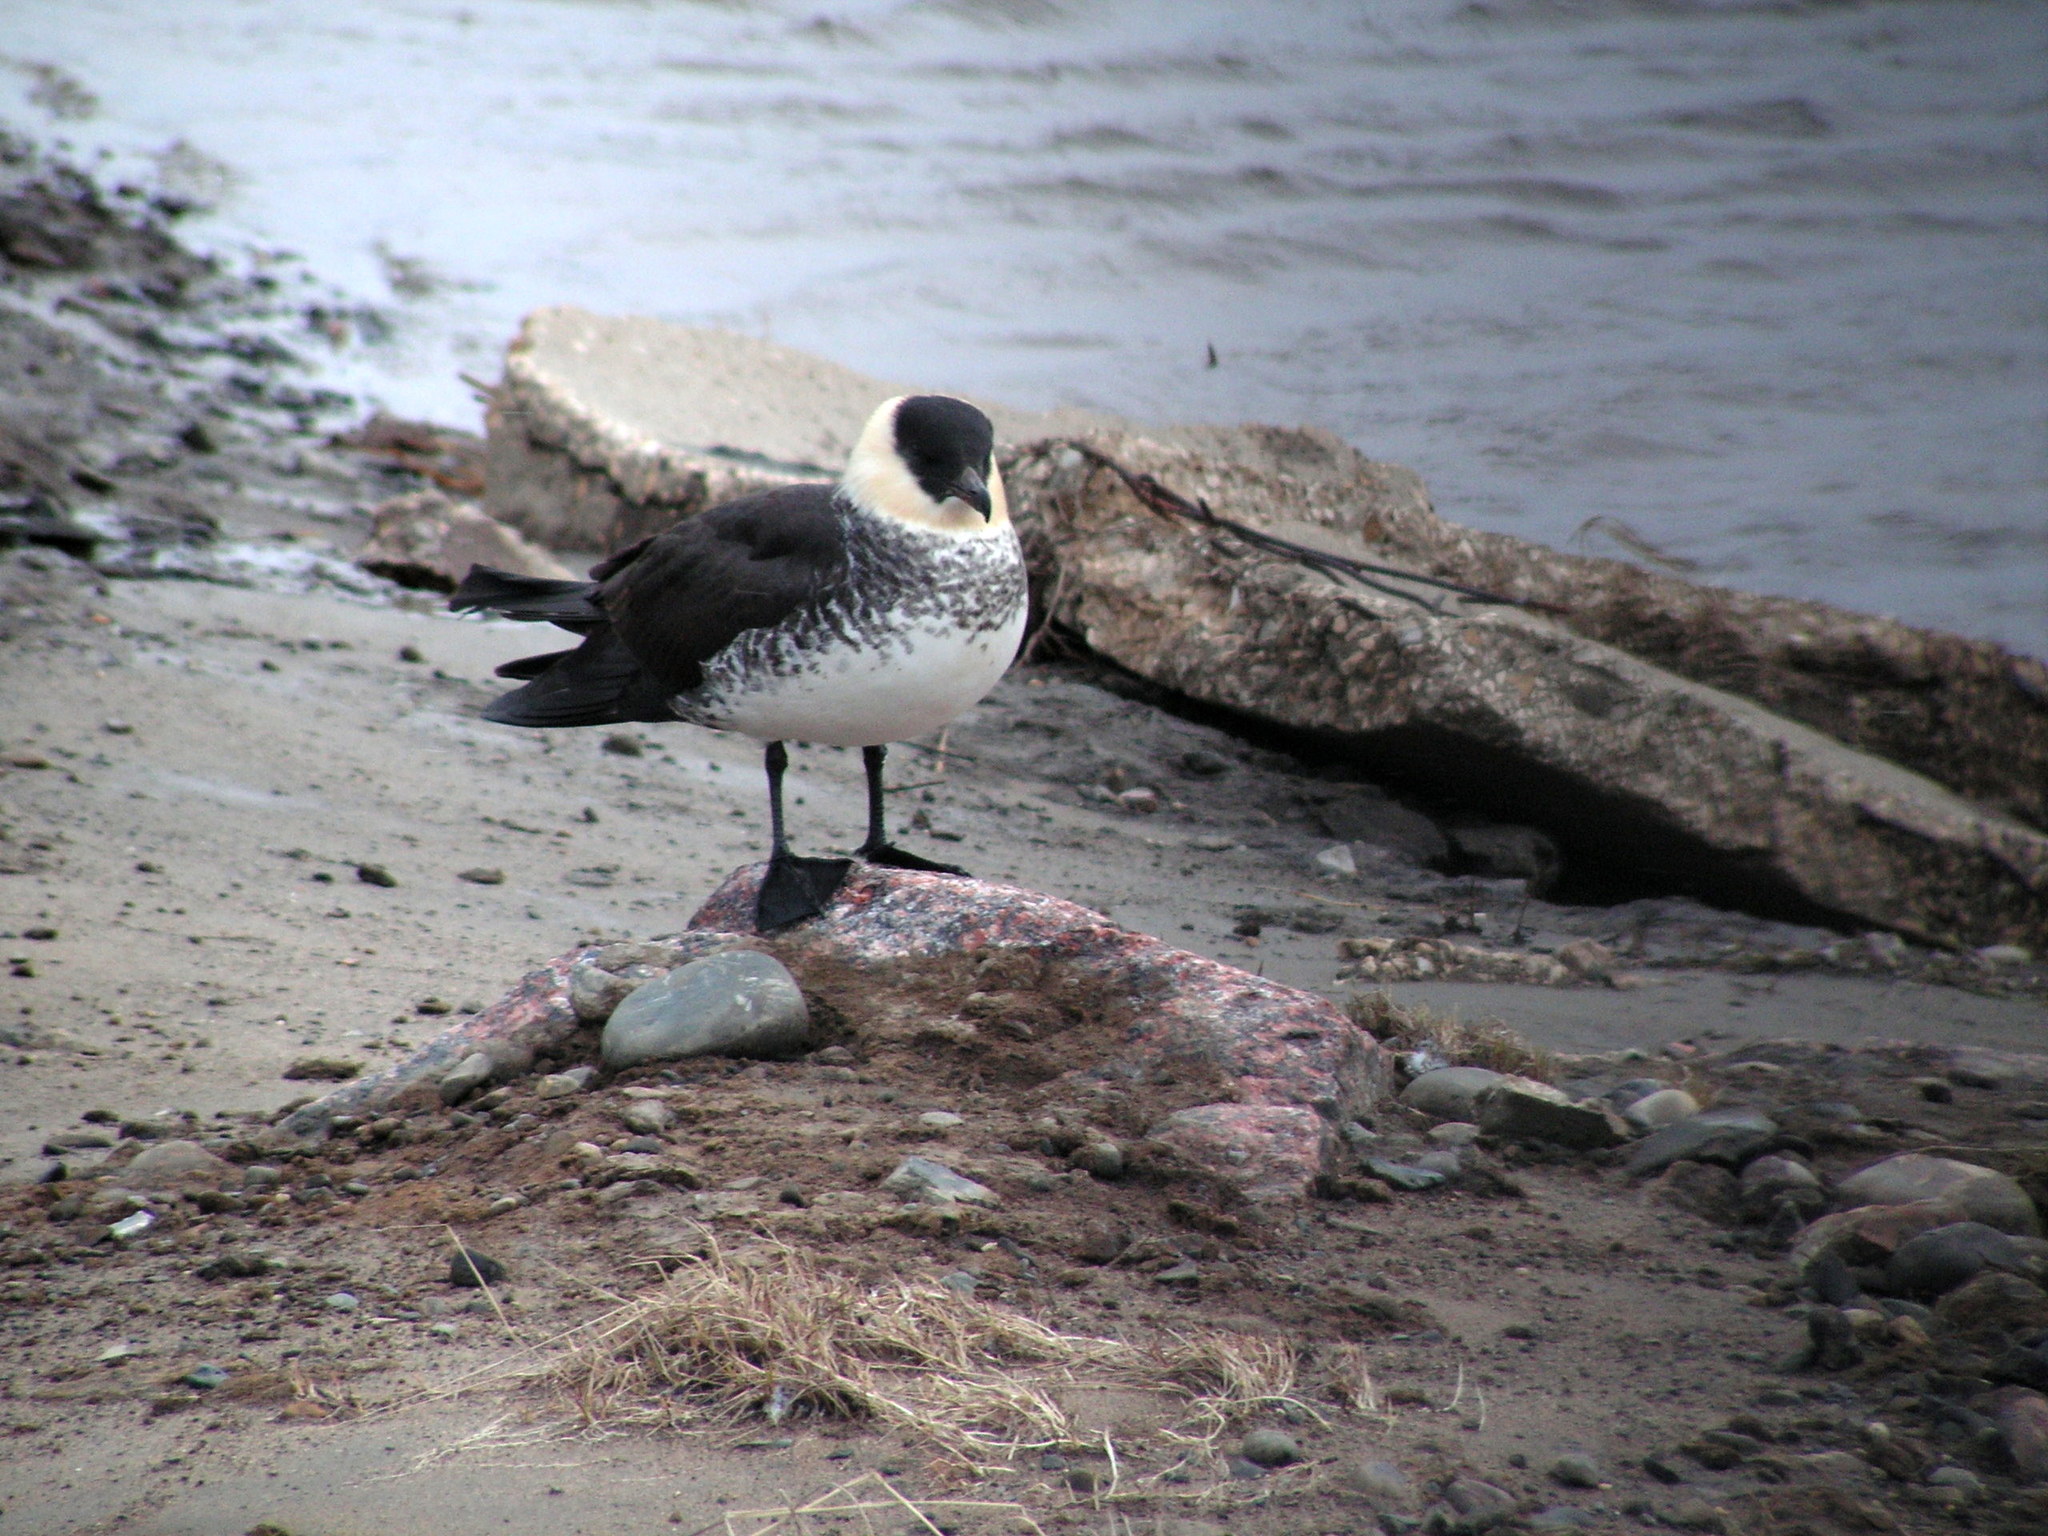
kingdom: Animalia
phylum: Chordata
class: Aves
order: Charadriiformes
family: Stercorariidae
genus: Stercorarius
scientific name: Stercorarius pomarinus
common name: Pomarine jaeger
